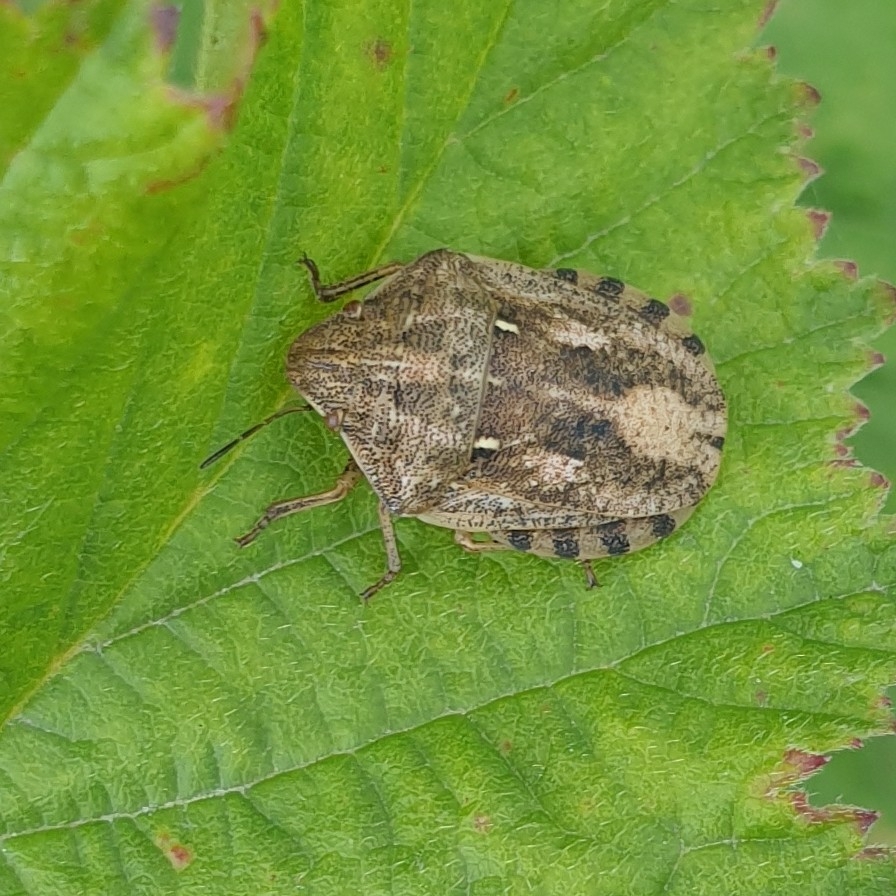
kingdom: Animalia
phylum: Arthropoda
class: Insecta
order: Hemiptera
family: Scutelleridae
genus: Eurygaster
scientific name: Eurygaster maura
